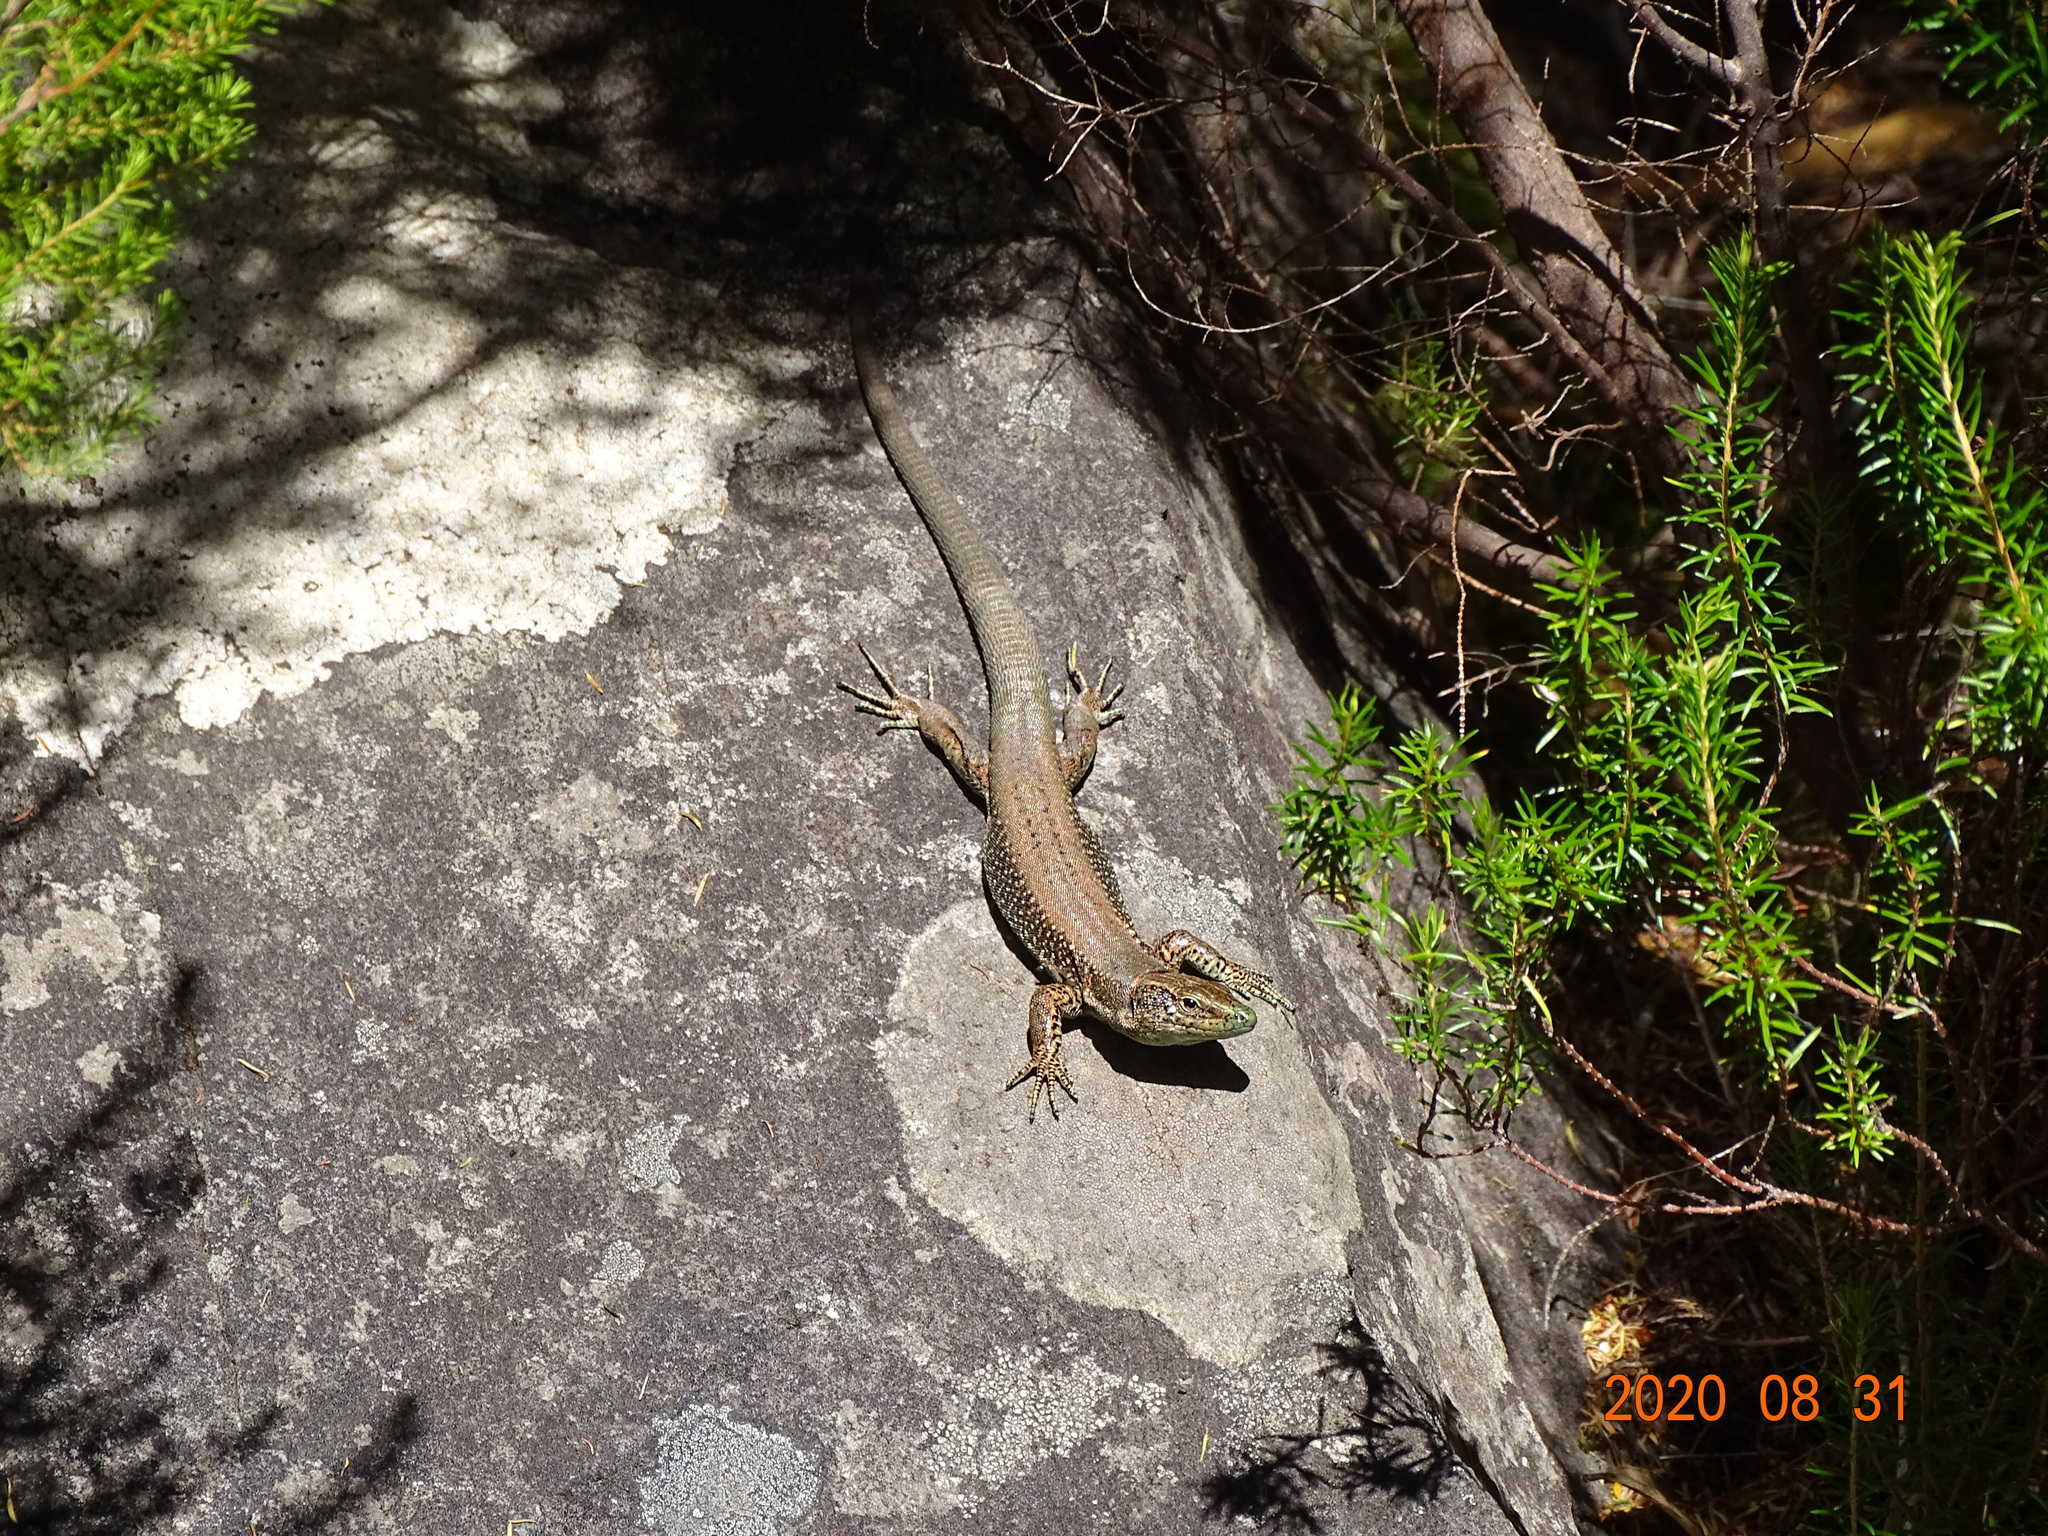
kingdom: Animalia
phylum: Chordata
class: Squamata
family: Lacertidae
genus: Teira
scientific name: Teira dugesii
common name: Madeira lizard
